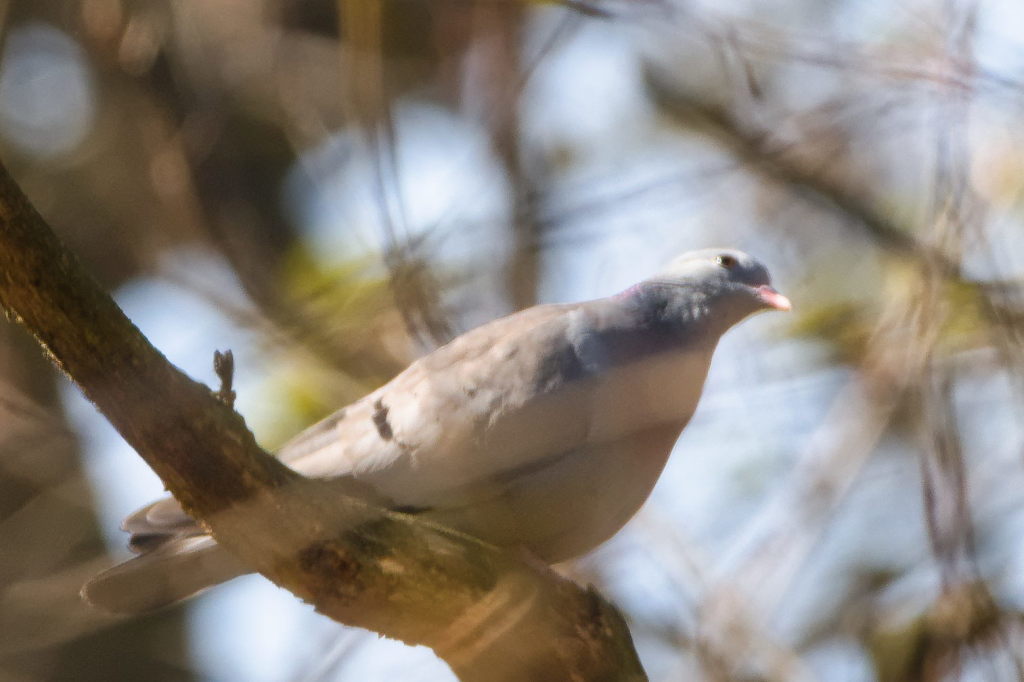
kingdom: Animalia
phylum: Chordata
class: Aves
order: Columbiformes
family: Columbidae
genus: Columba
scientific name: Columba oenas
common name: Stock dove
